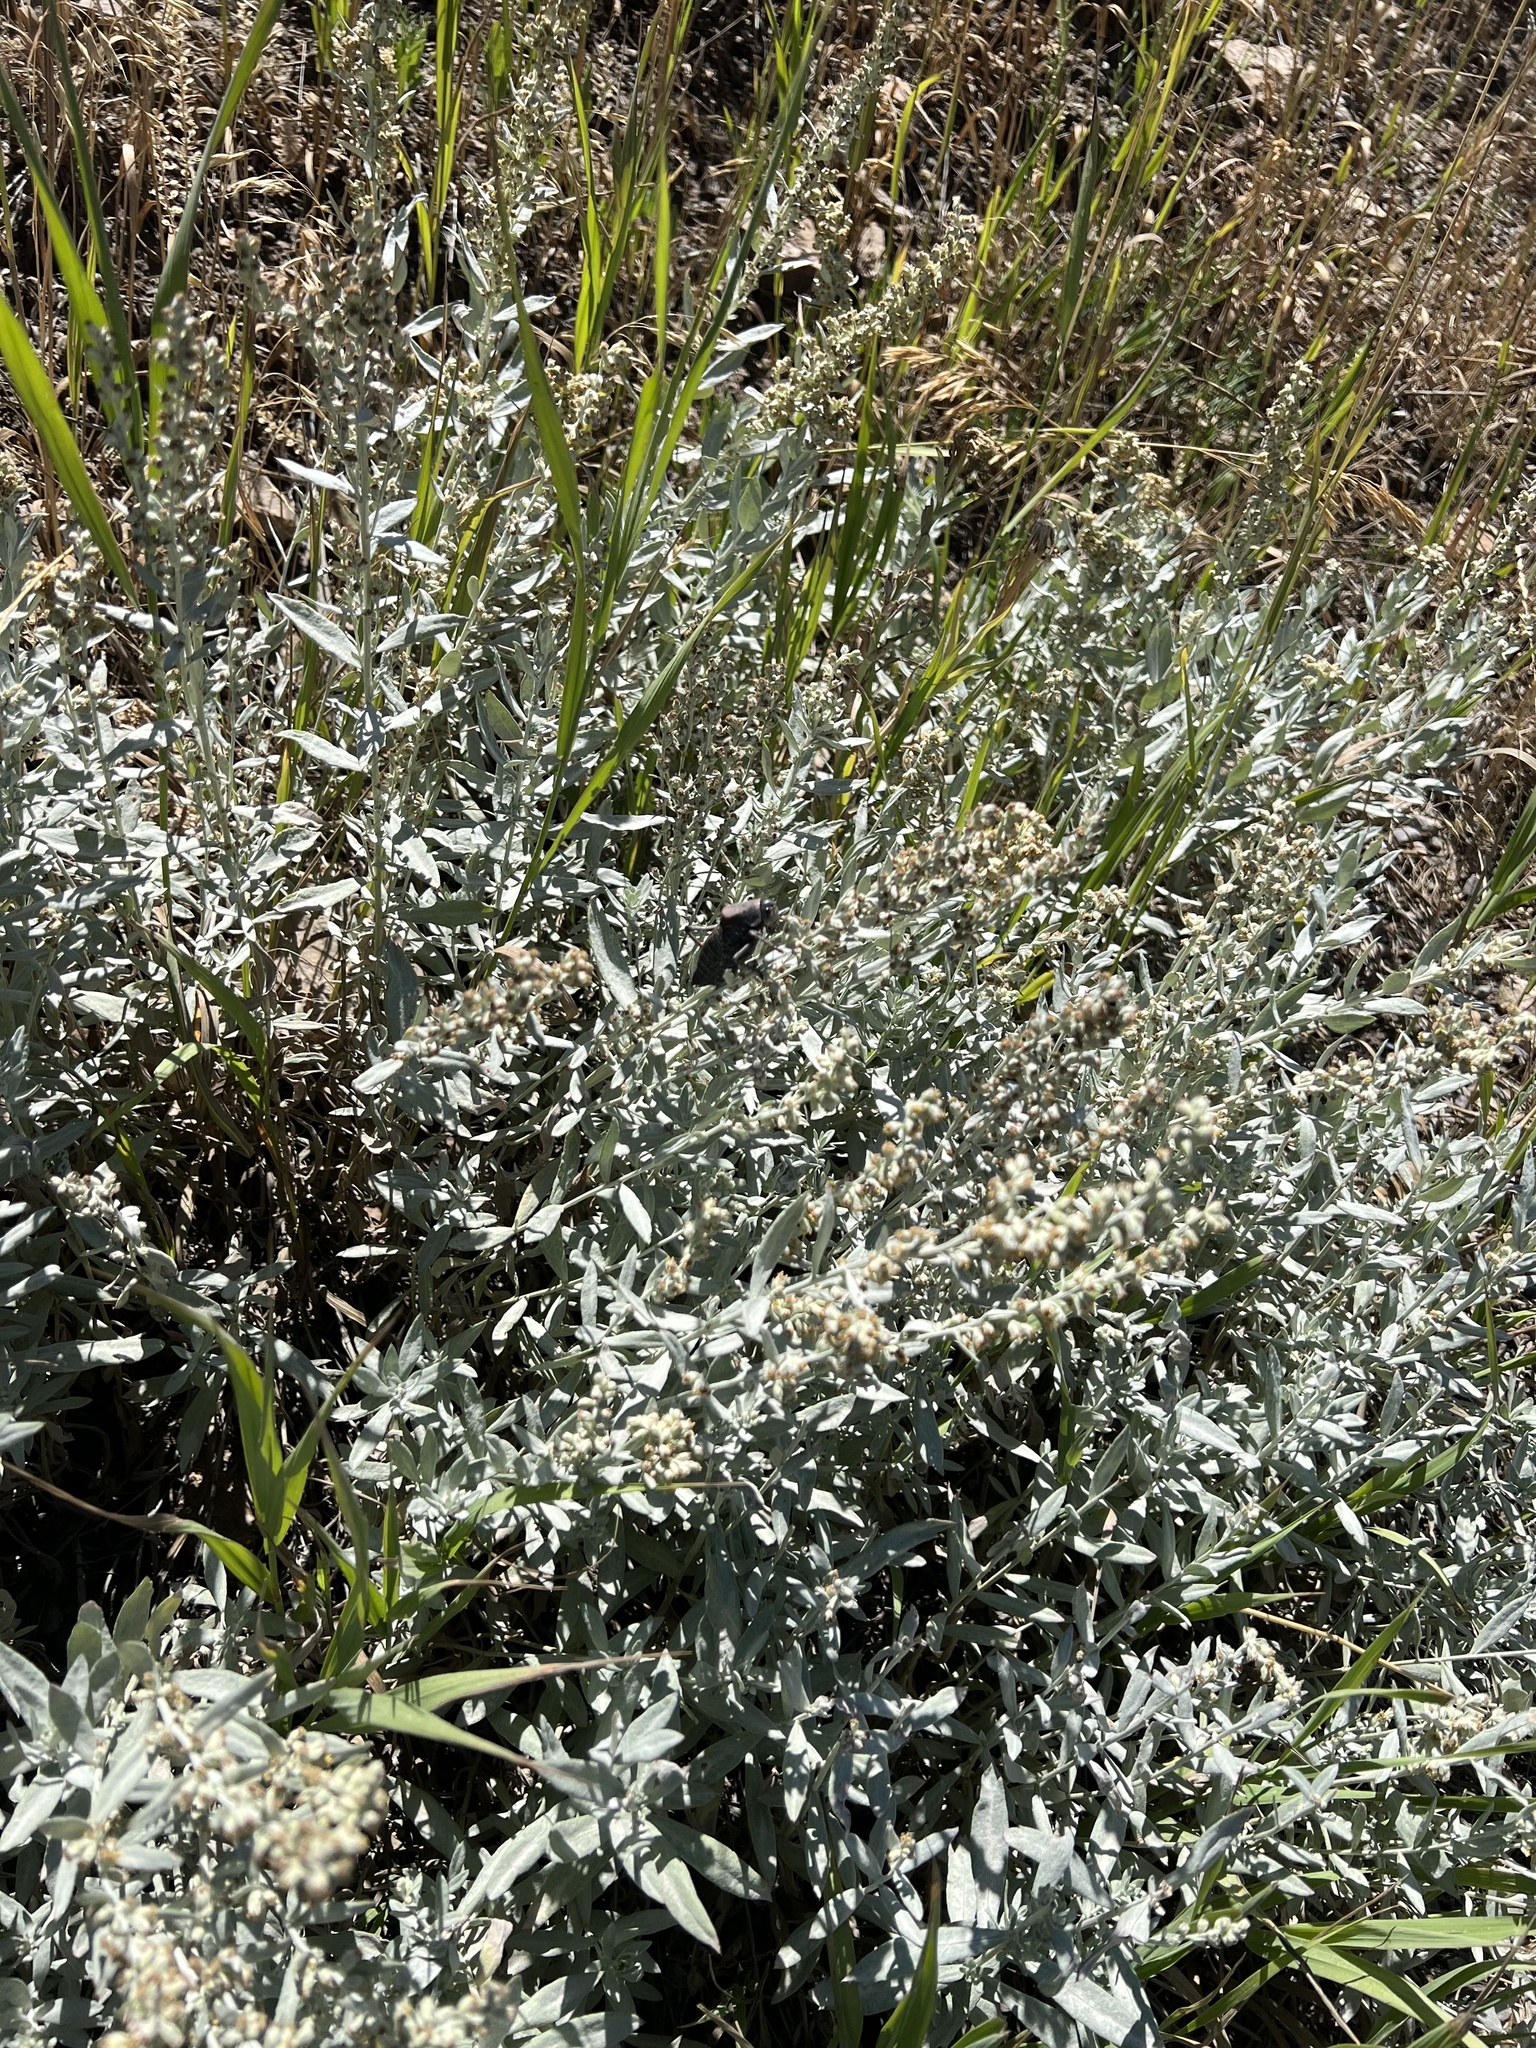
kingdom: Animalia
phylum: Arthropoda
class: Insecta
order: Orthoptera
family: Tettigoniidae
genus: Anabrus
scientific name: Anabrus simplex
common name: Mormon cricket
